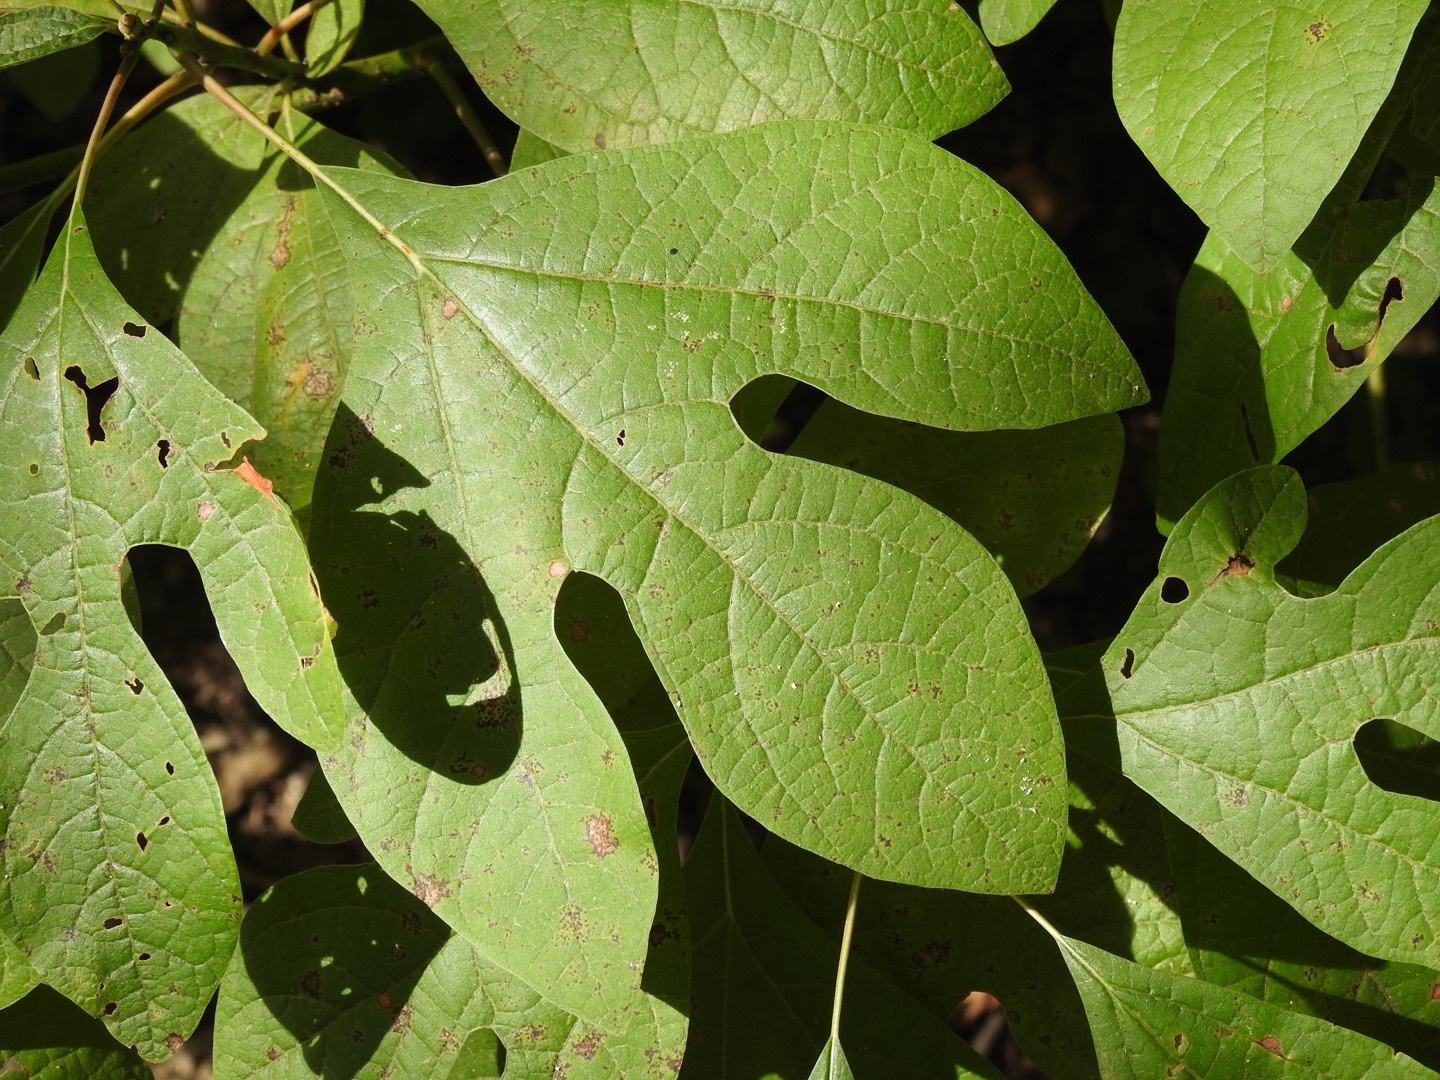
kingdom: Plantae
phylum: Tracheophyta
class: Magnoliopsida
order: Laurales
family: Lauraceae
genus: Sassafras
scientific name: Sassafras albidum
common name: Sassafras
